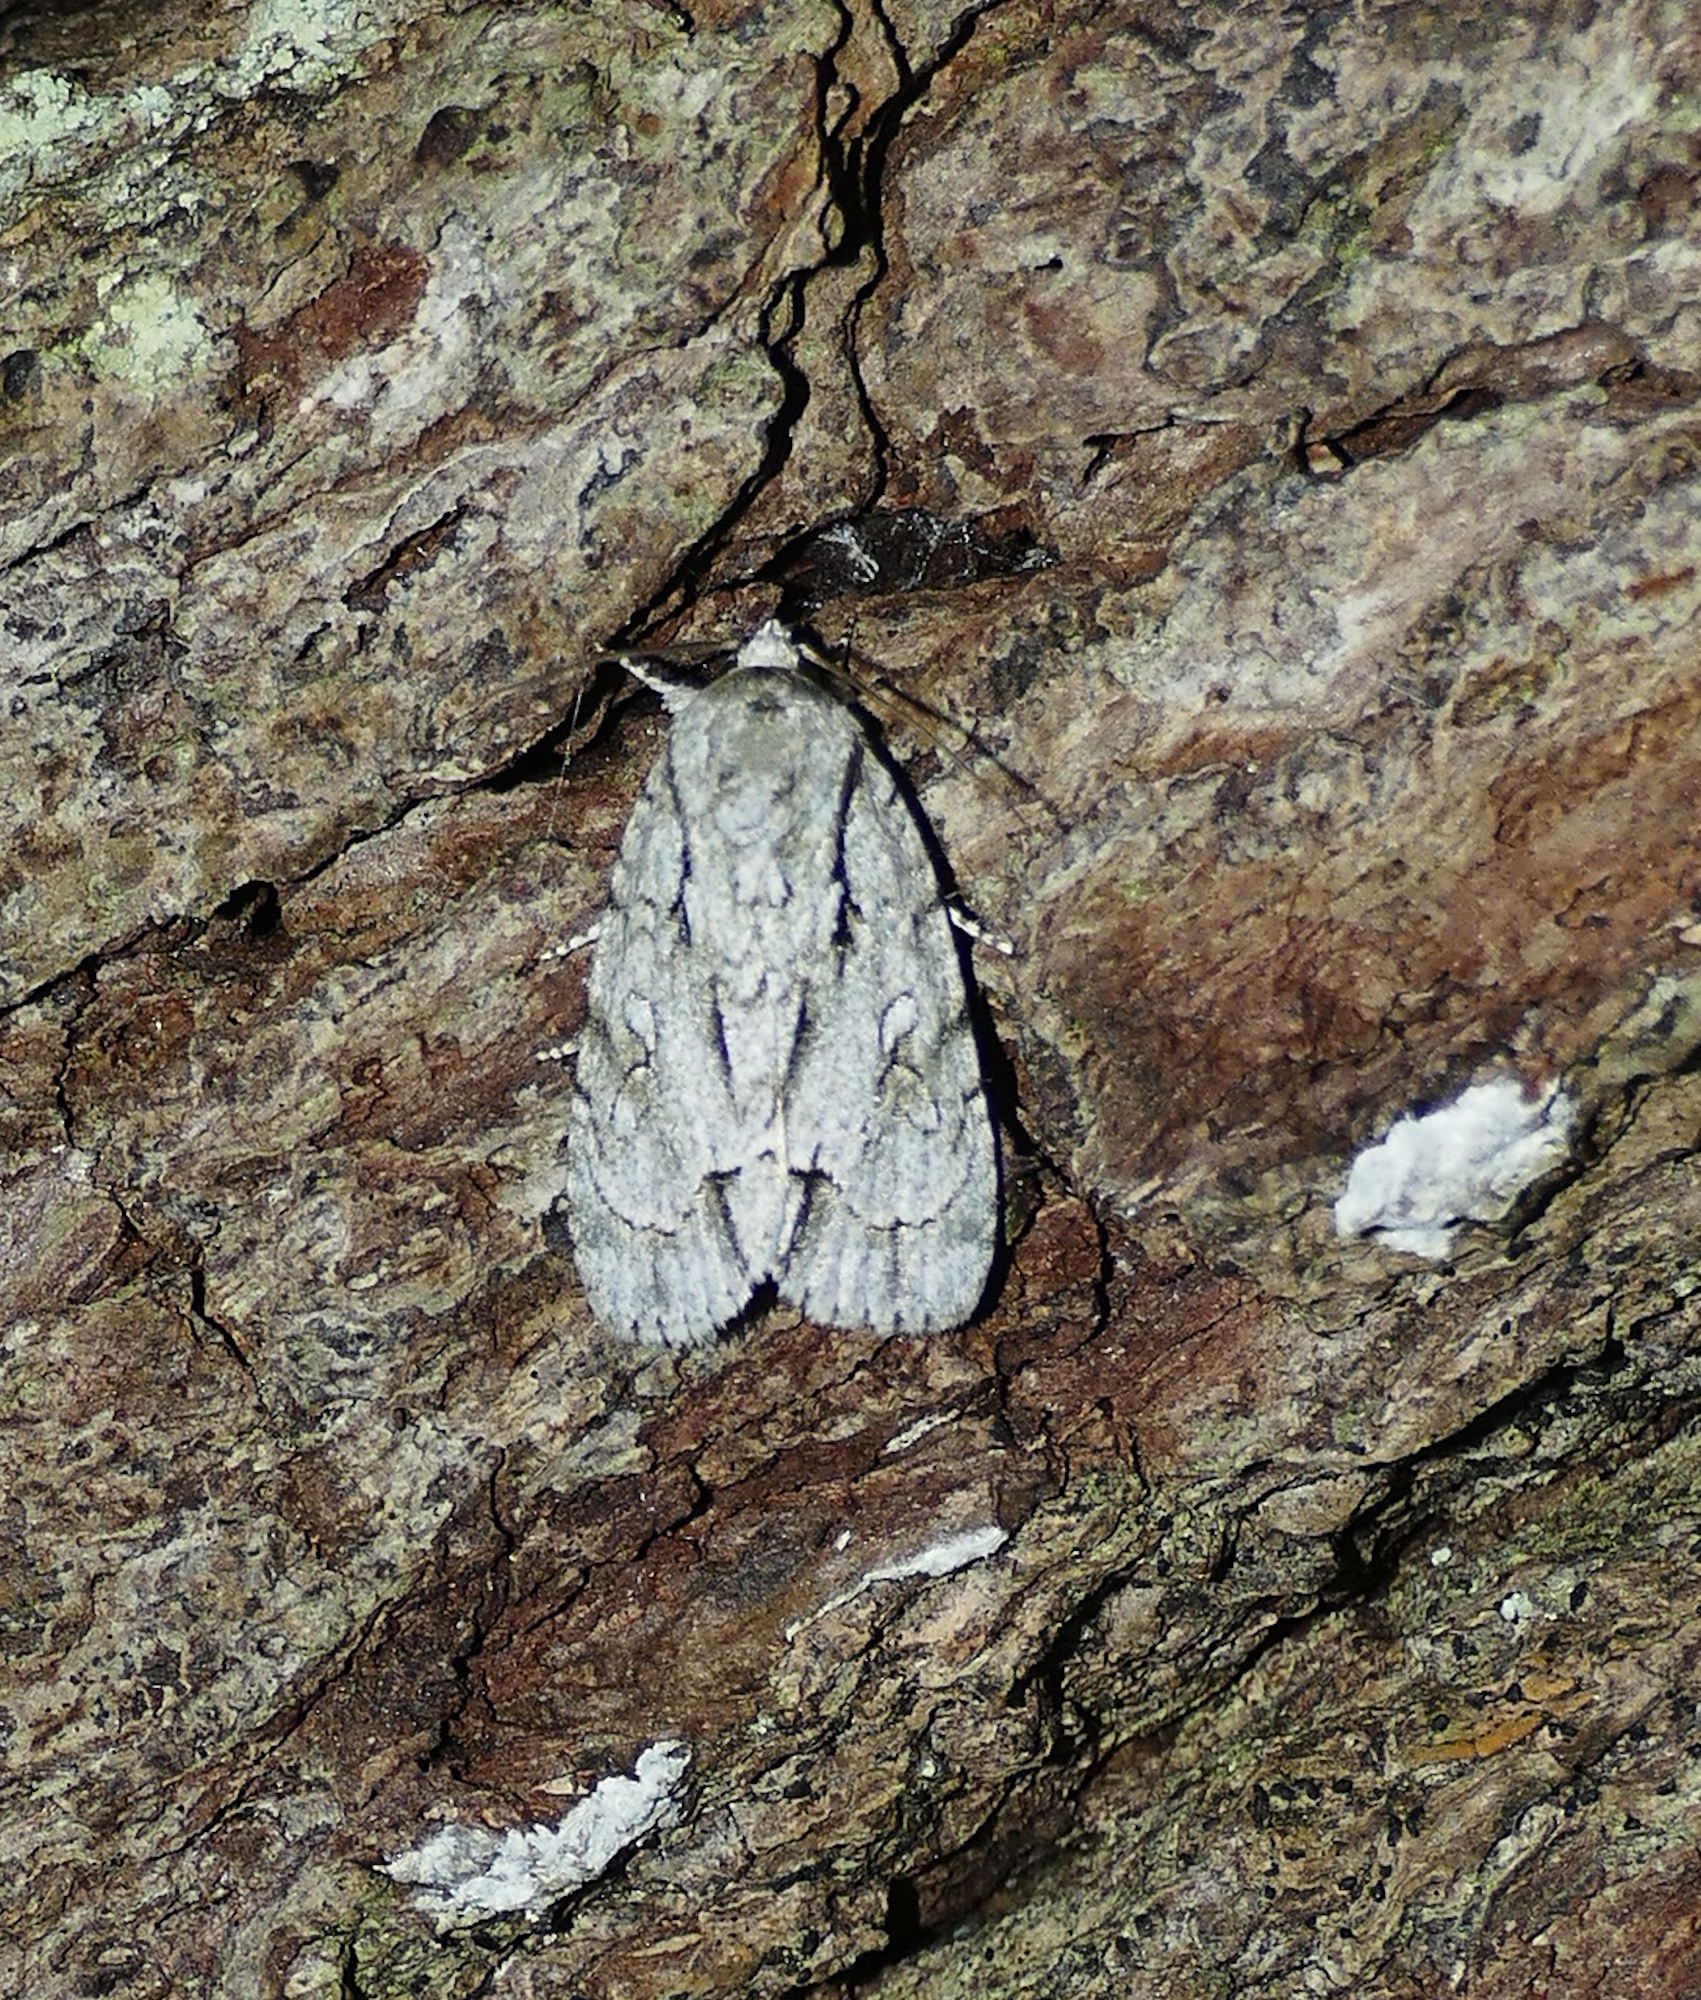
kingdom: Animalia
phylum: Arthropoda
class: Insecta
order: Lepidoptera
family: Noctuidae
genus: Acronicta
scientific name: Acronicta vinnula
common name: Delightful dagger
